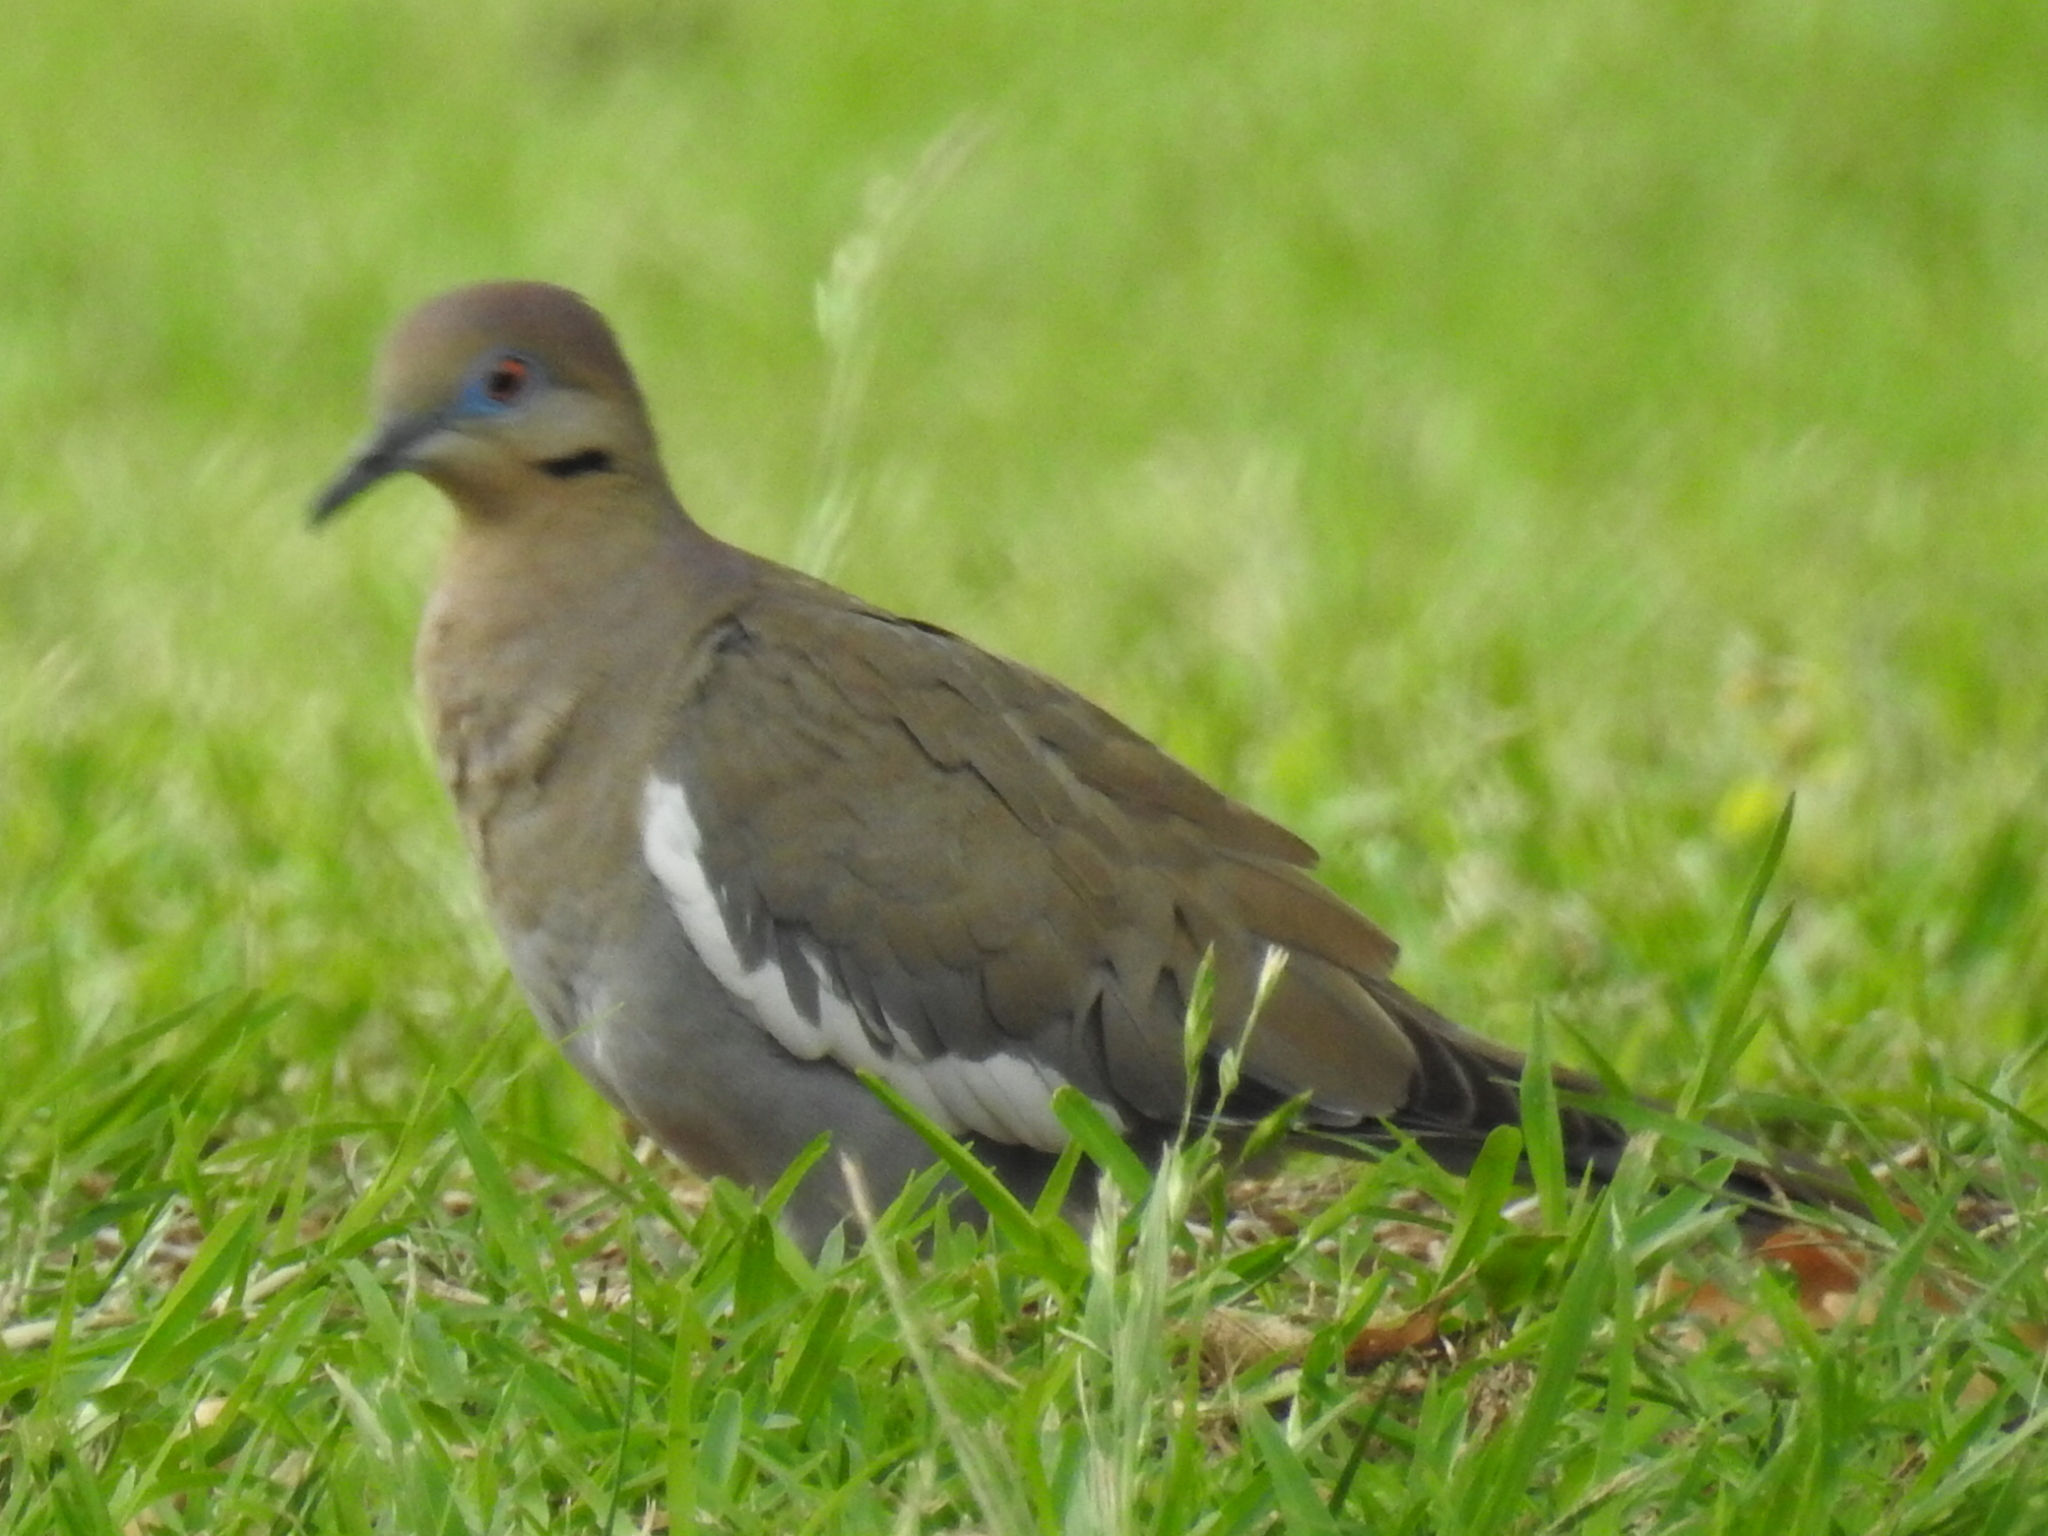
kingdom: Animalia
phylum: Chordata
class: Aves
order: Columbiformes
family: Columbidae
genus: Zenaida
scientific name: Zenaida asiatica
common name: White-winged dove
